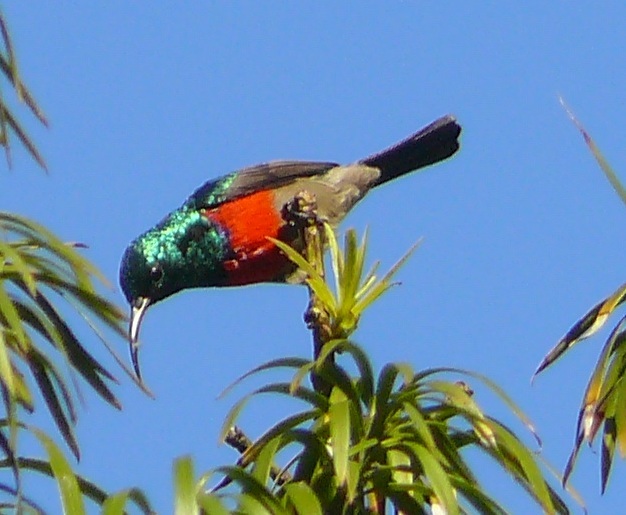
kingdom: Animalia
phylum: Chordata
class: Aves
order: Passeriformes
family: Nectariniidae
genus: Cinnyris
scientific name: Cinnyris afer
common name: Greater double-collared sunbird
